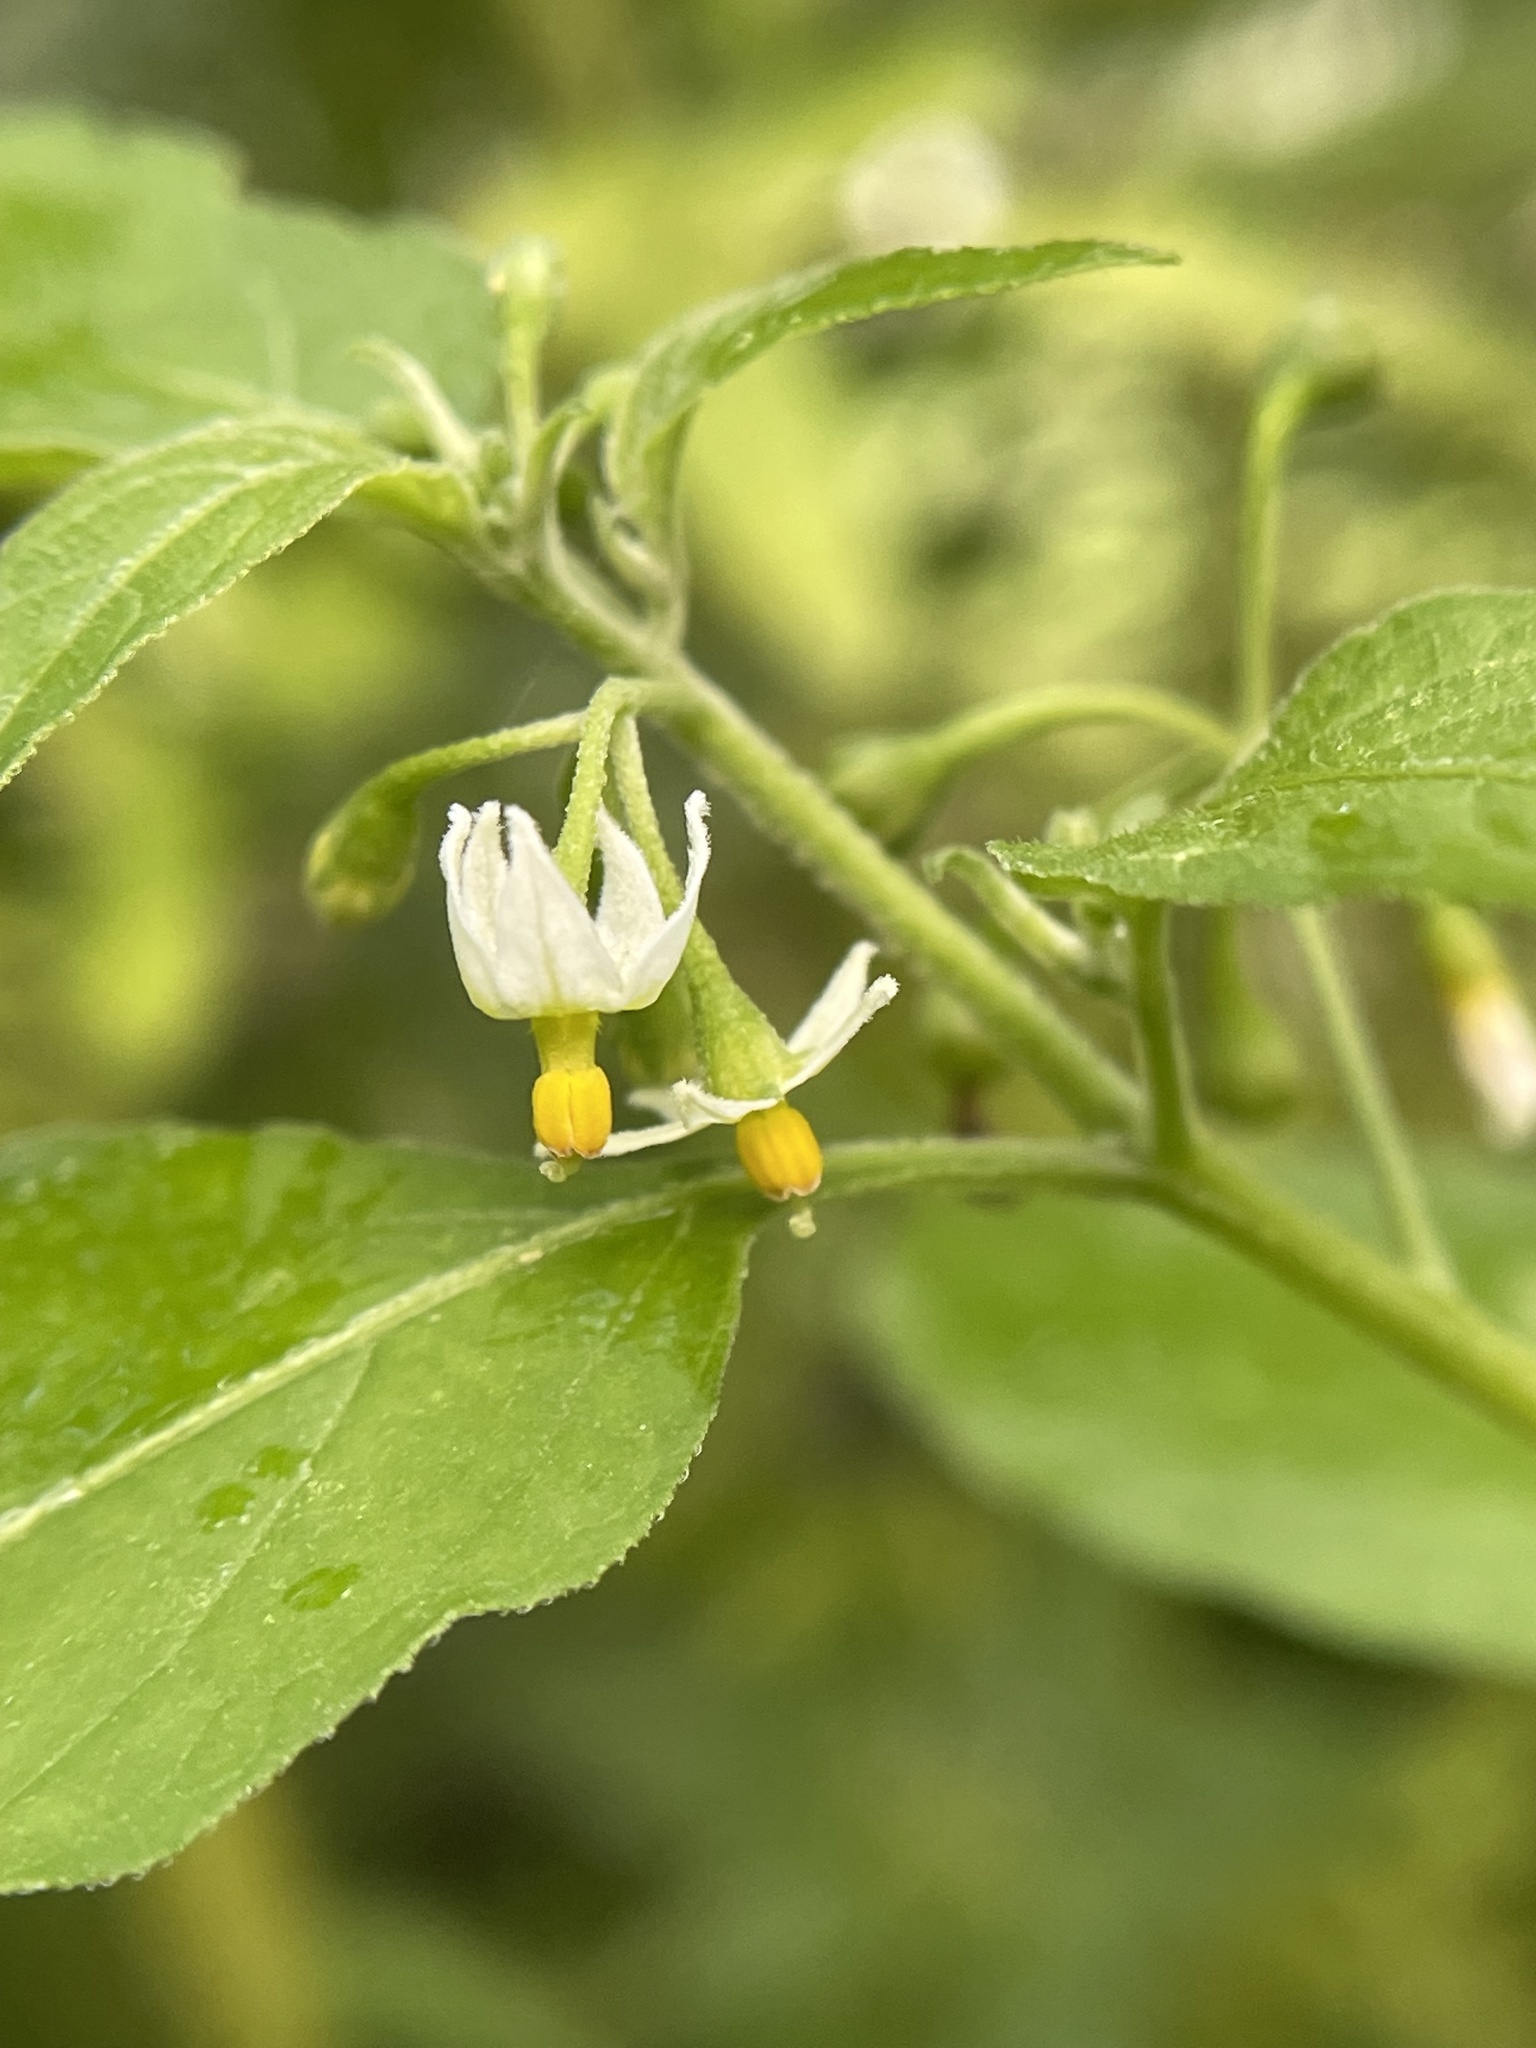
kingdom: Plantae
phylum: Tracheophyta
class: Magnoliopsida
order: Solanales
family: Solanaceae
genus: Solanum
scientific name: Solanum emulans
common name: Eastern black nightshade
